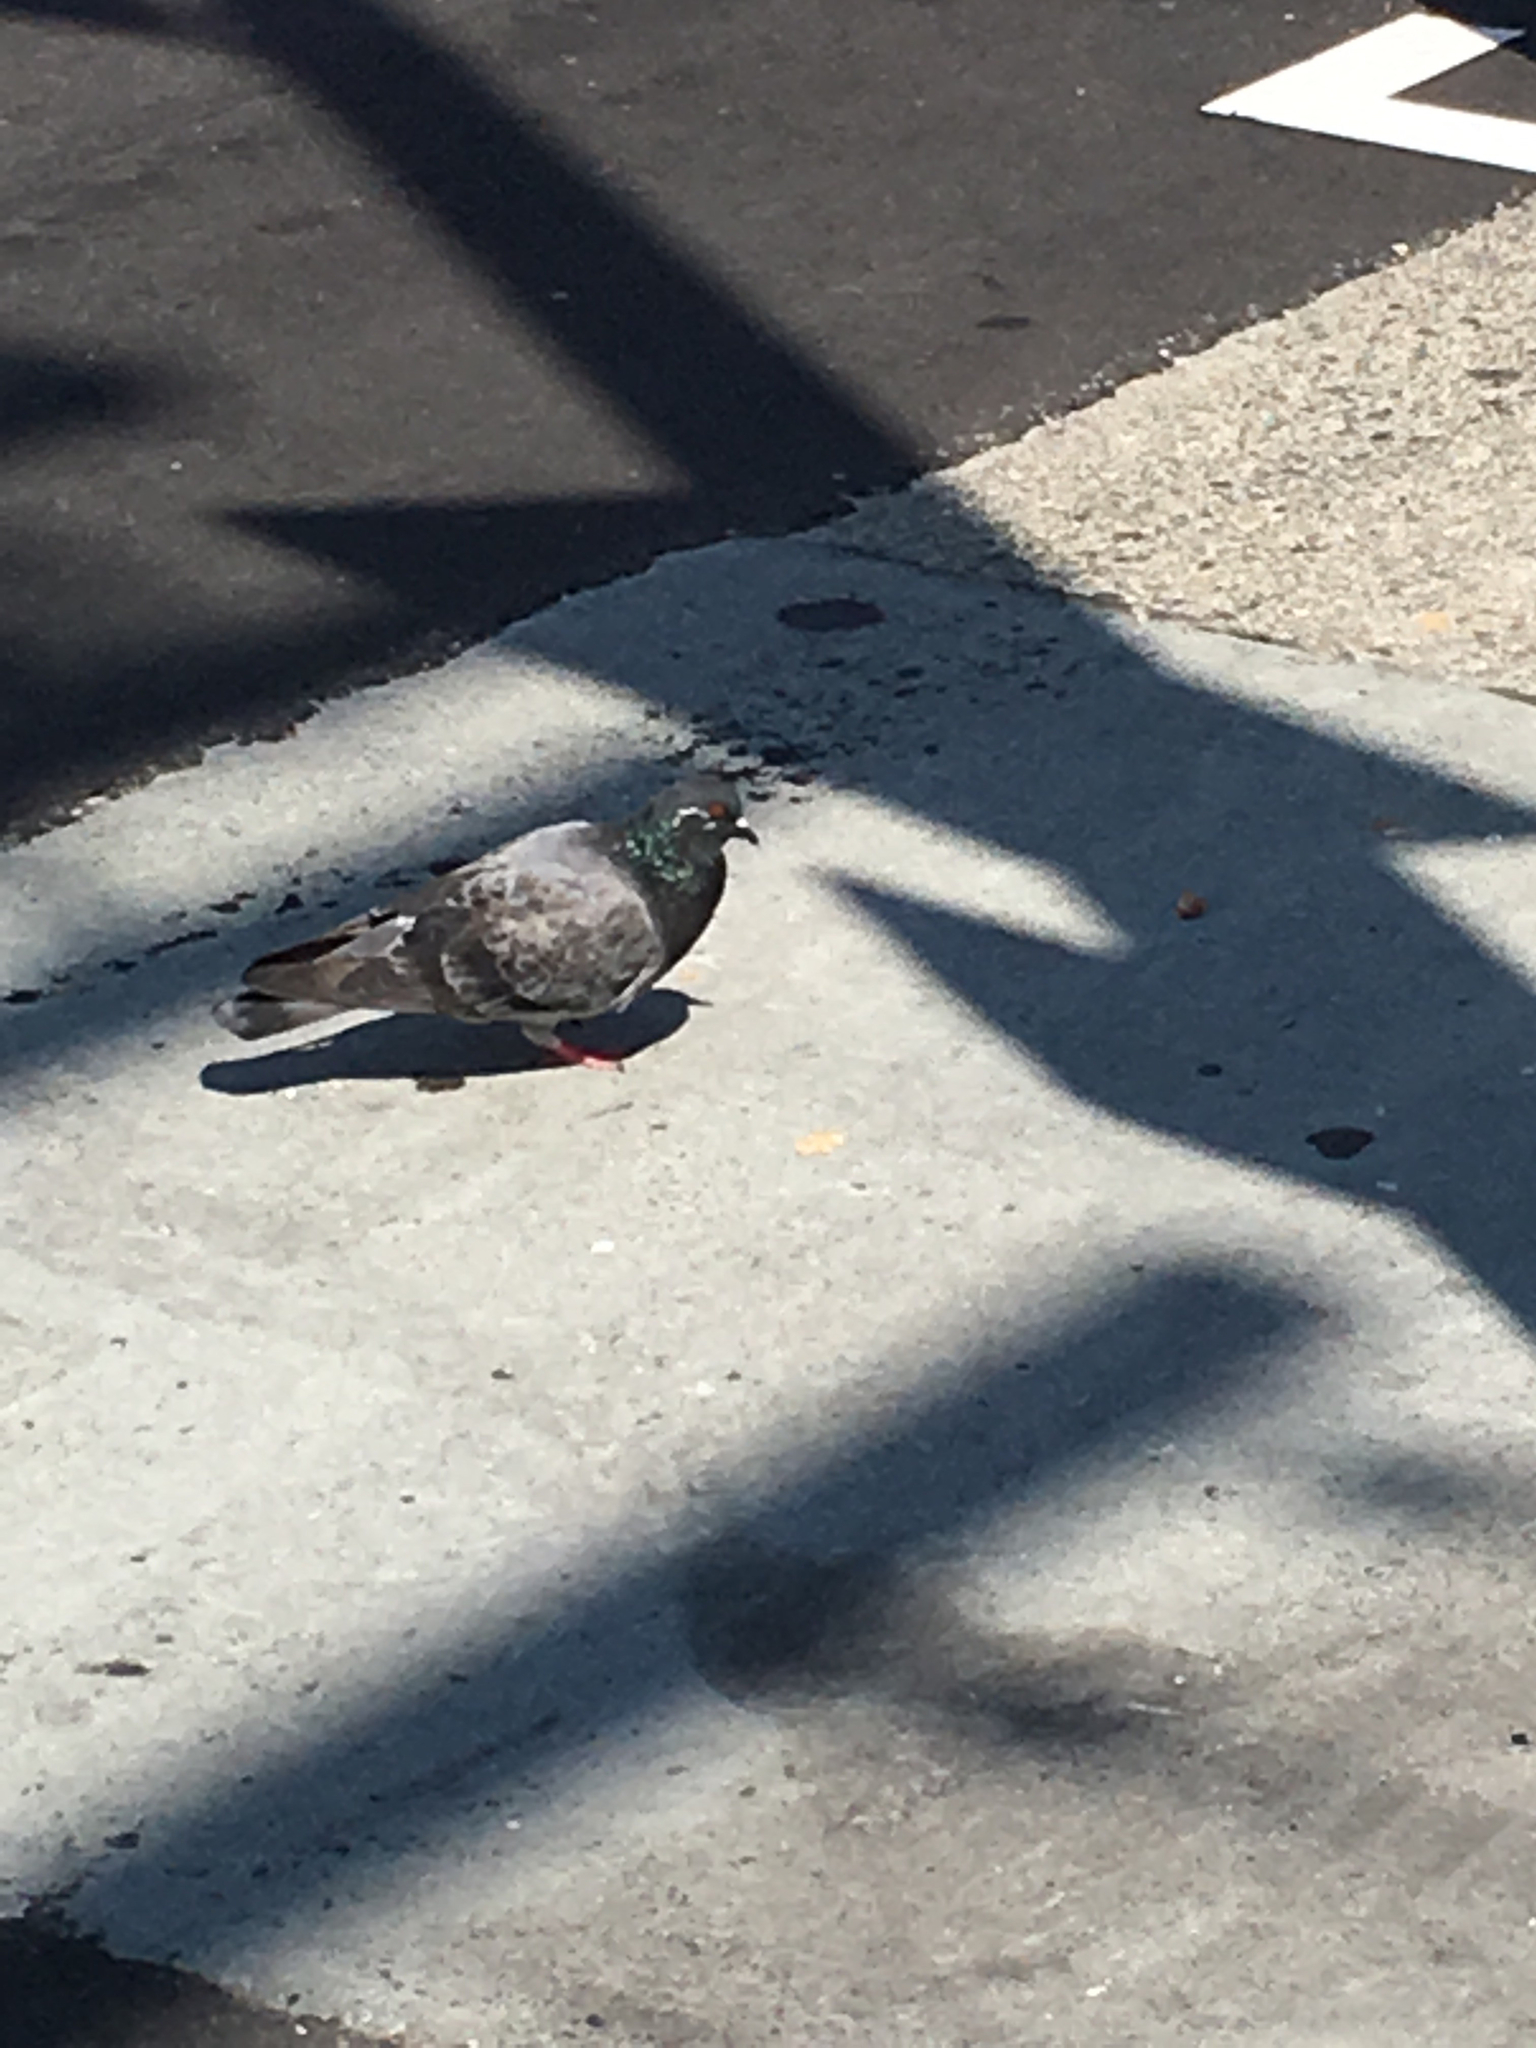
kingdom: Animalia
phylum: Chordata
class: Aves
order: Columbiformes
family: Columbidae
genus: Columba
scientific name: Columba livia
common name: Rock pigeon
